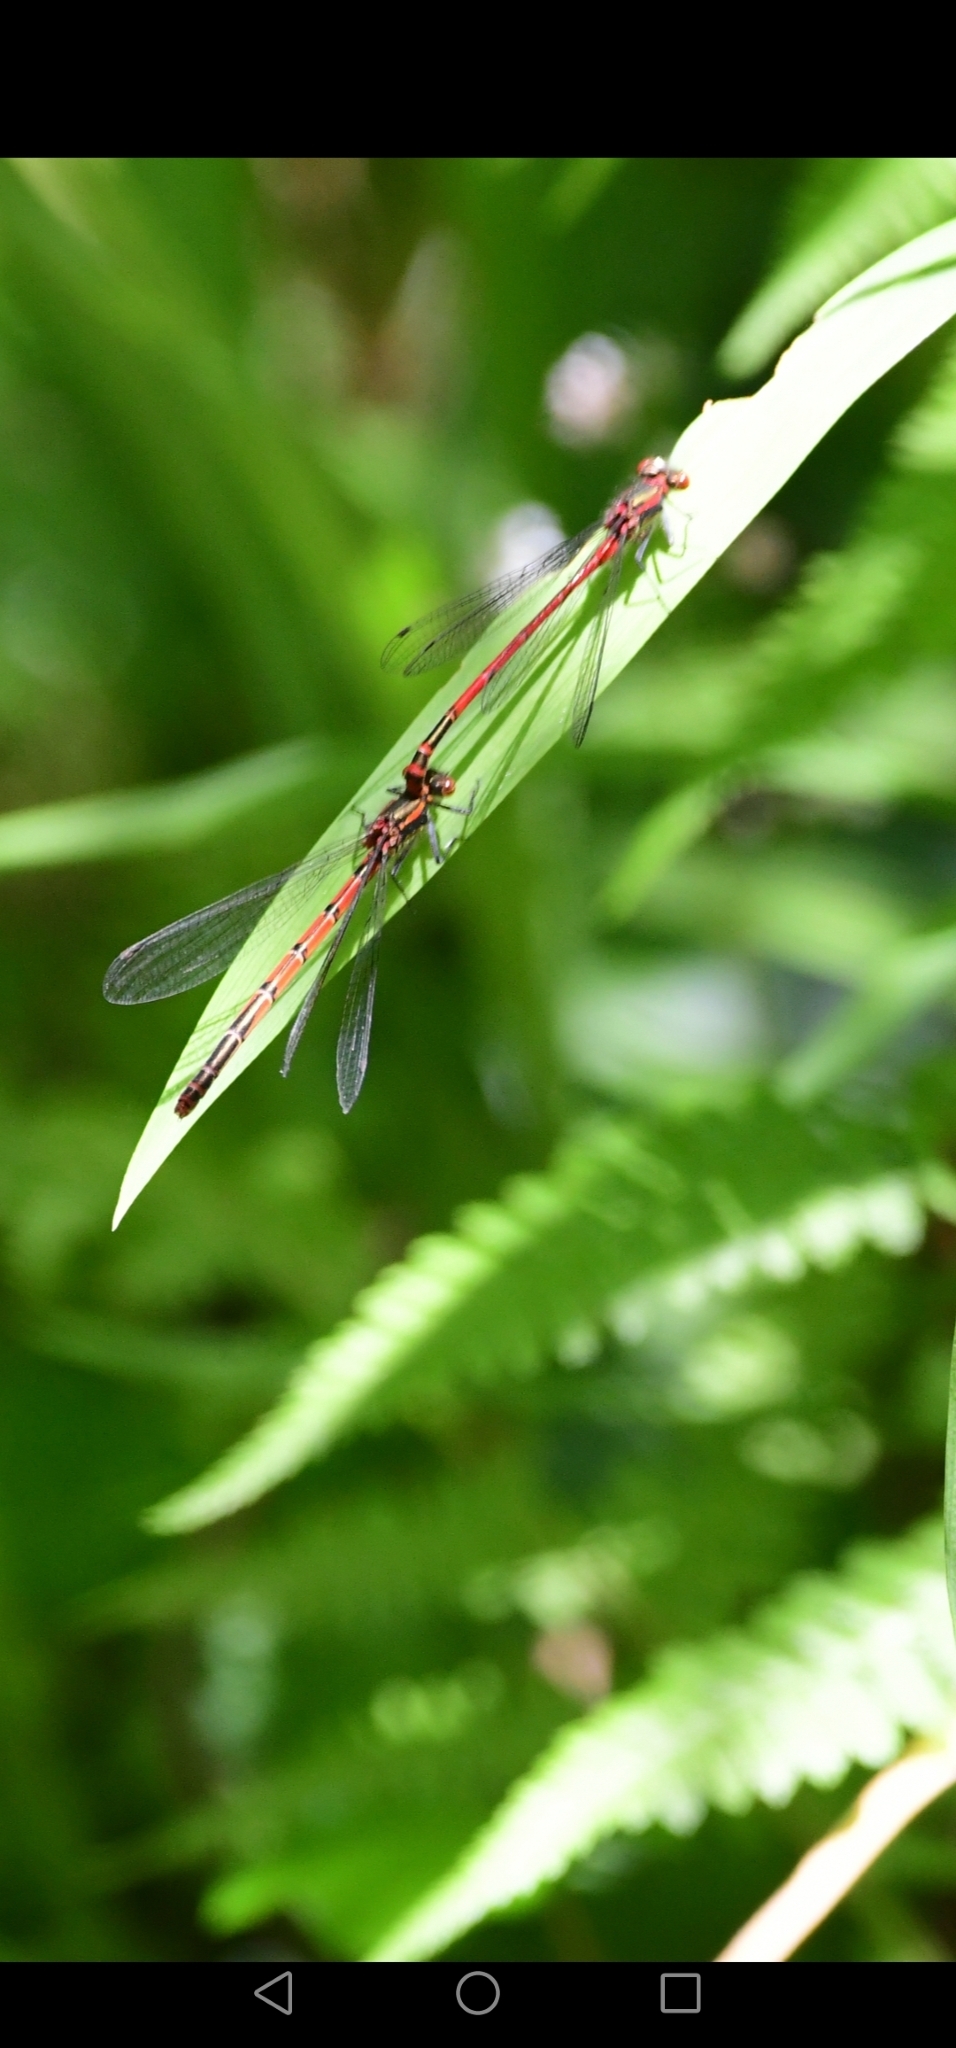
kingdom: Animalia
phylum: Arthropoda
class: Insecta
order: Odonata
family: Coenagrionidae
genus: Pyrrhosoma
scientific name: Pyrrhosoma nymphula
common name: Large red damsel
